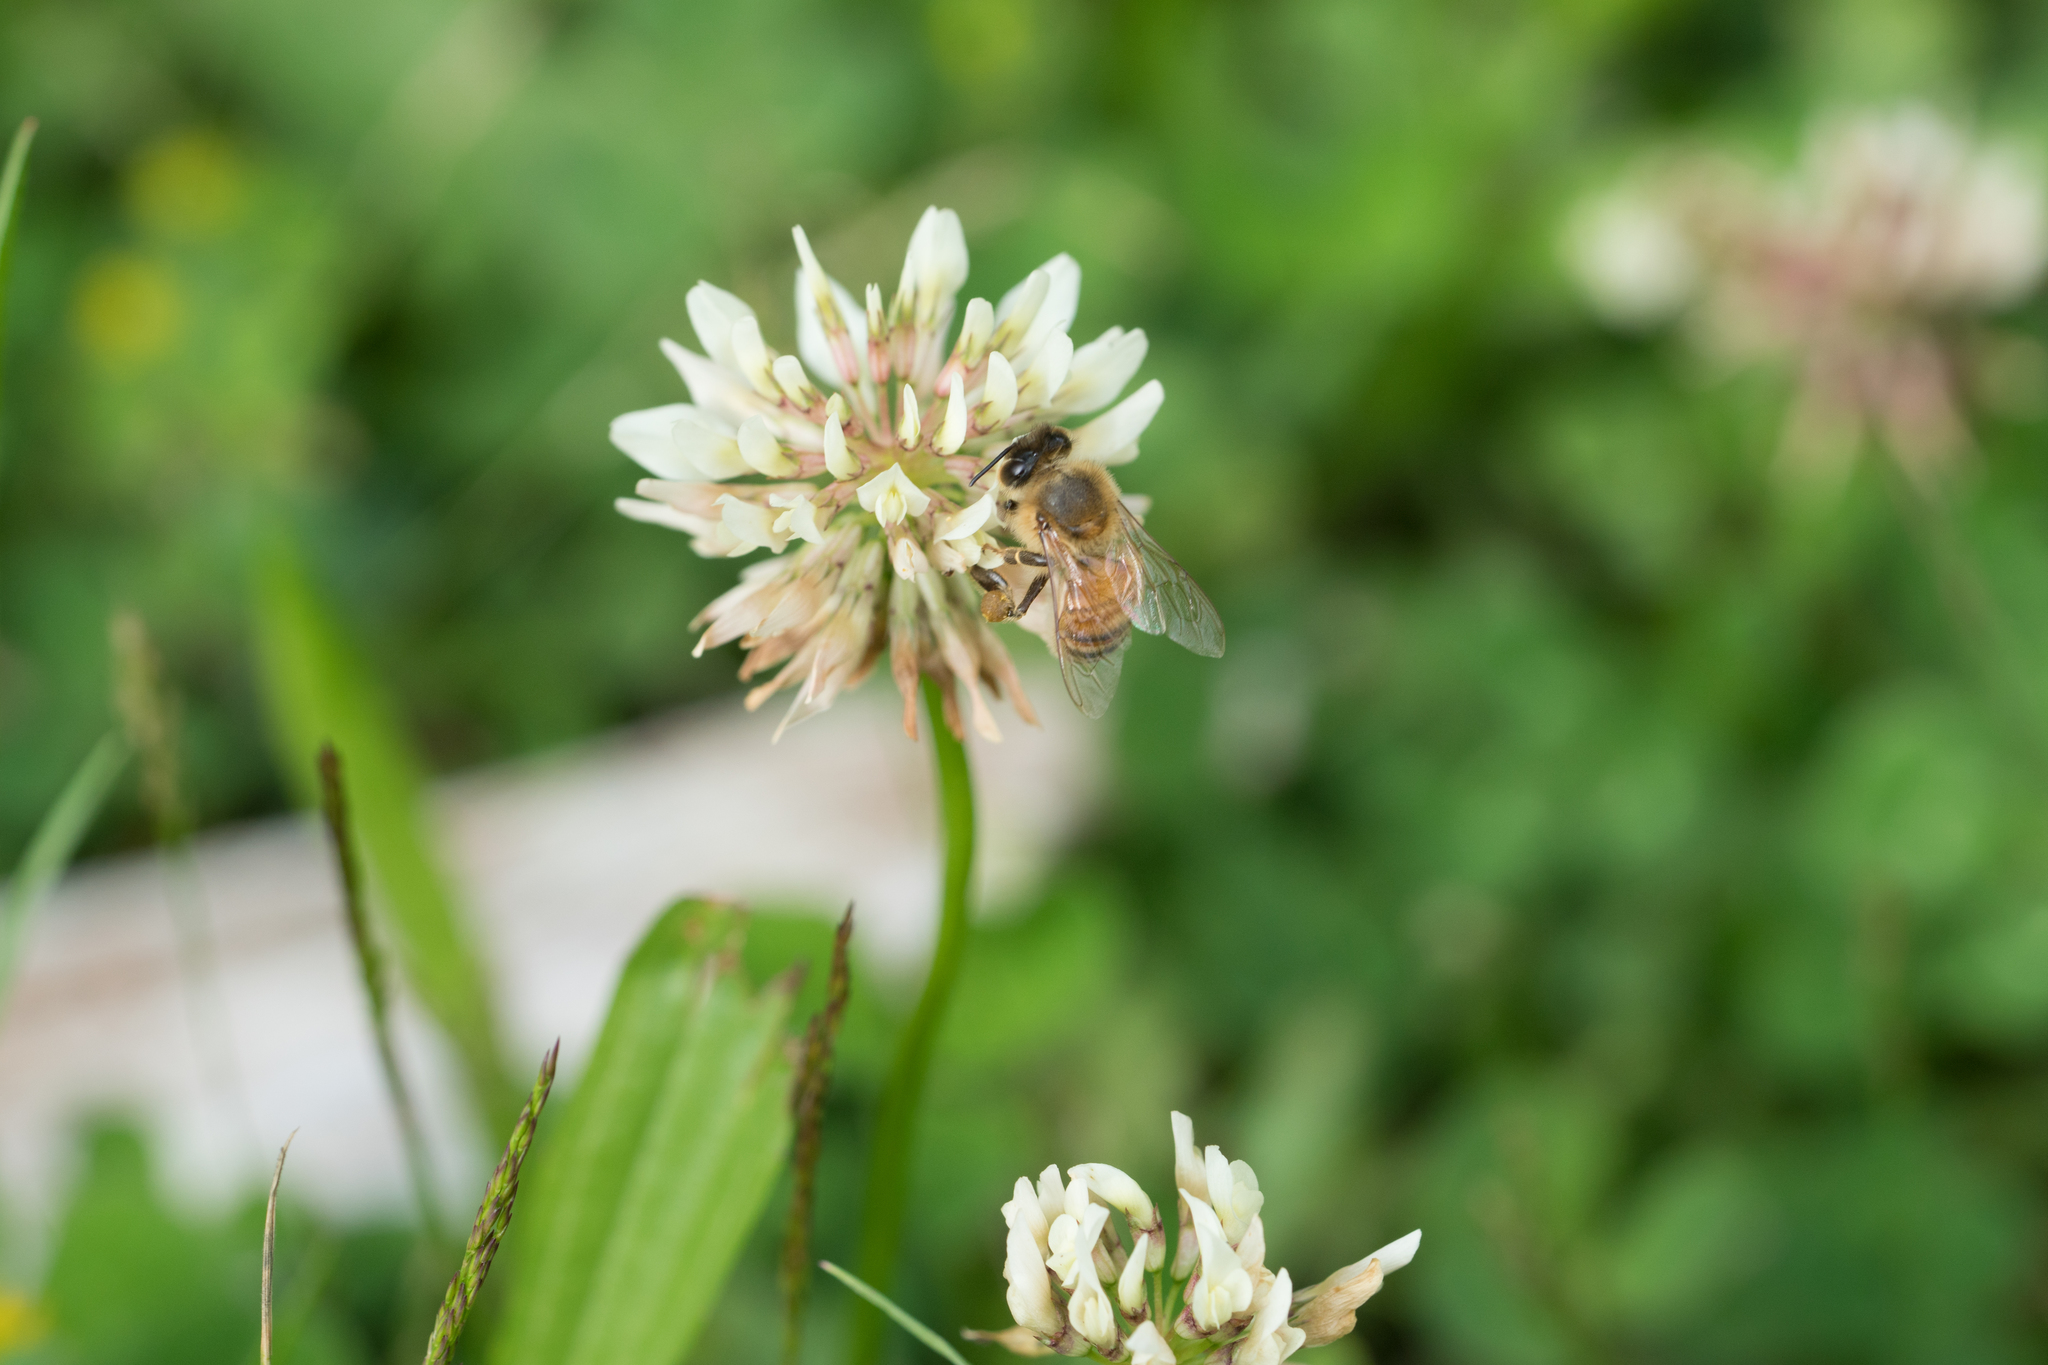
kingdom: Plantae
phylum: Tracheophyta
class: Magnoliopsida
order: Fabales
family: Fabaceae
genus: Trifolium
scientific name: Trifolium repens
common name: White clover
